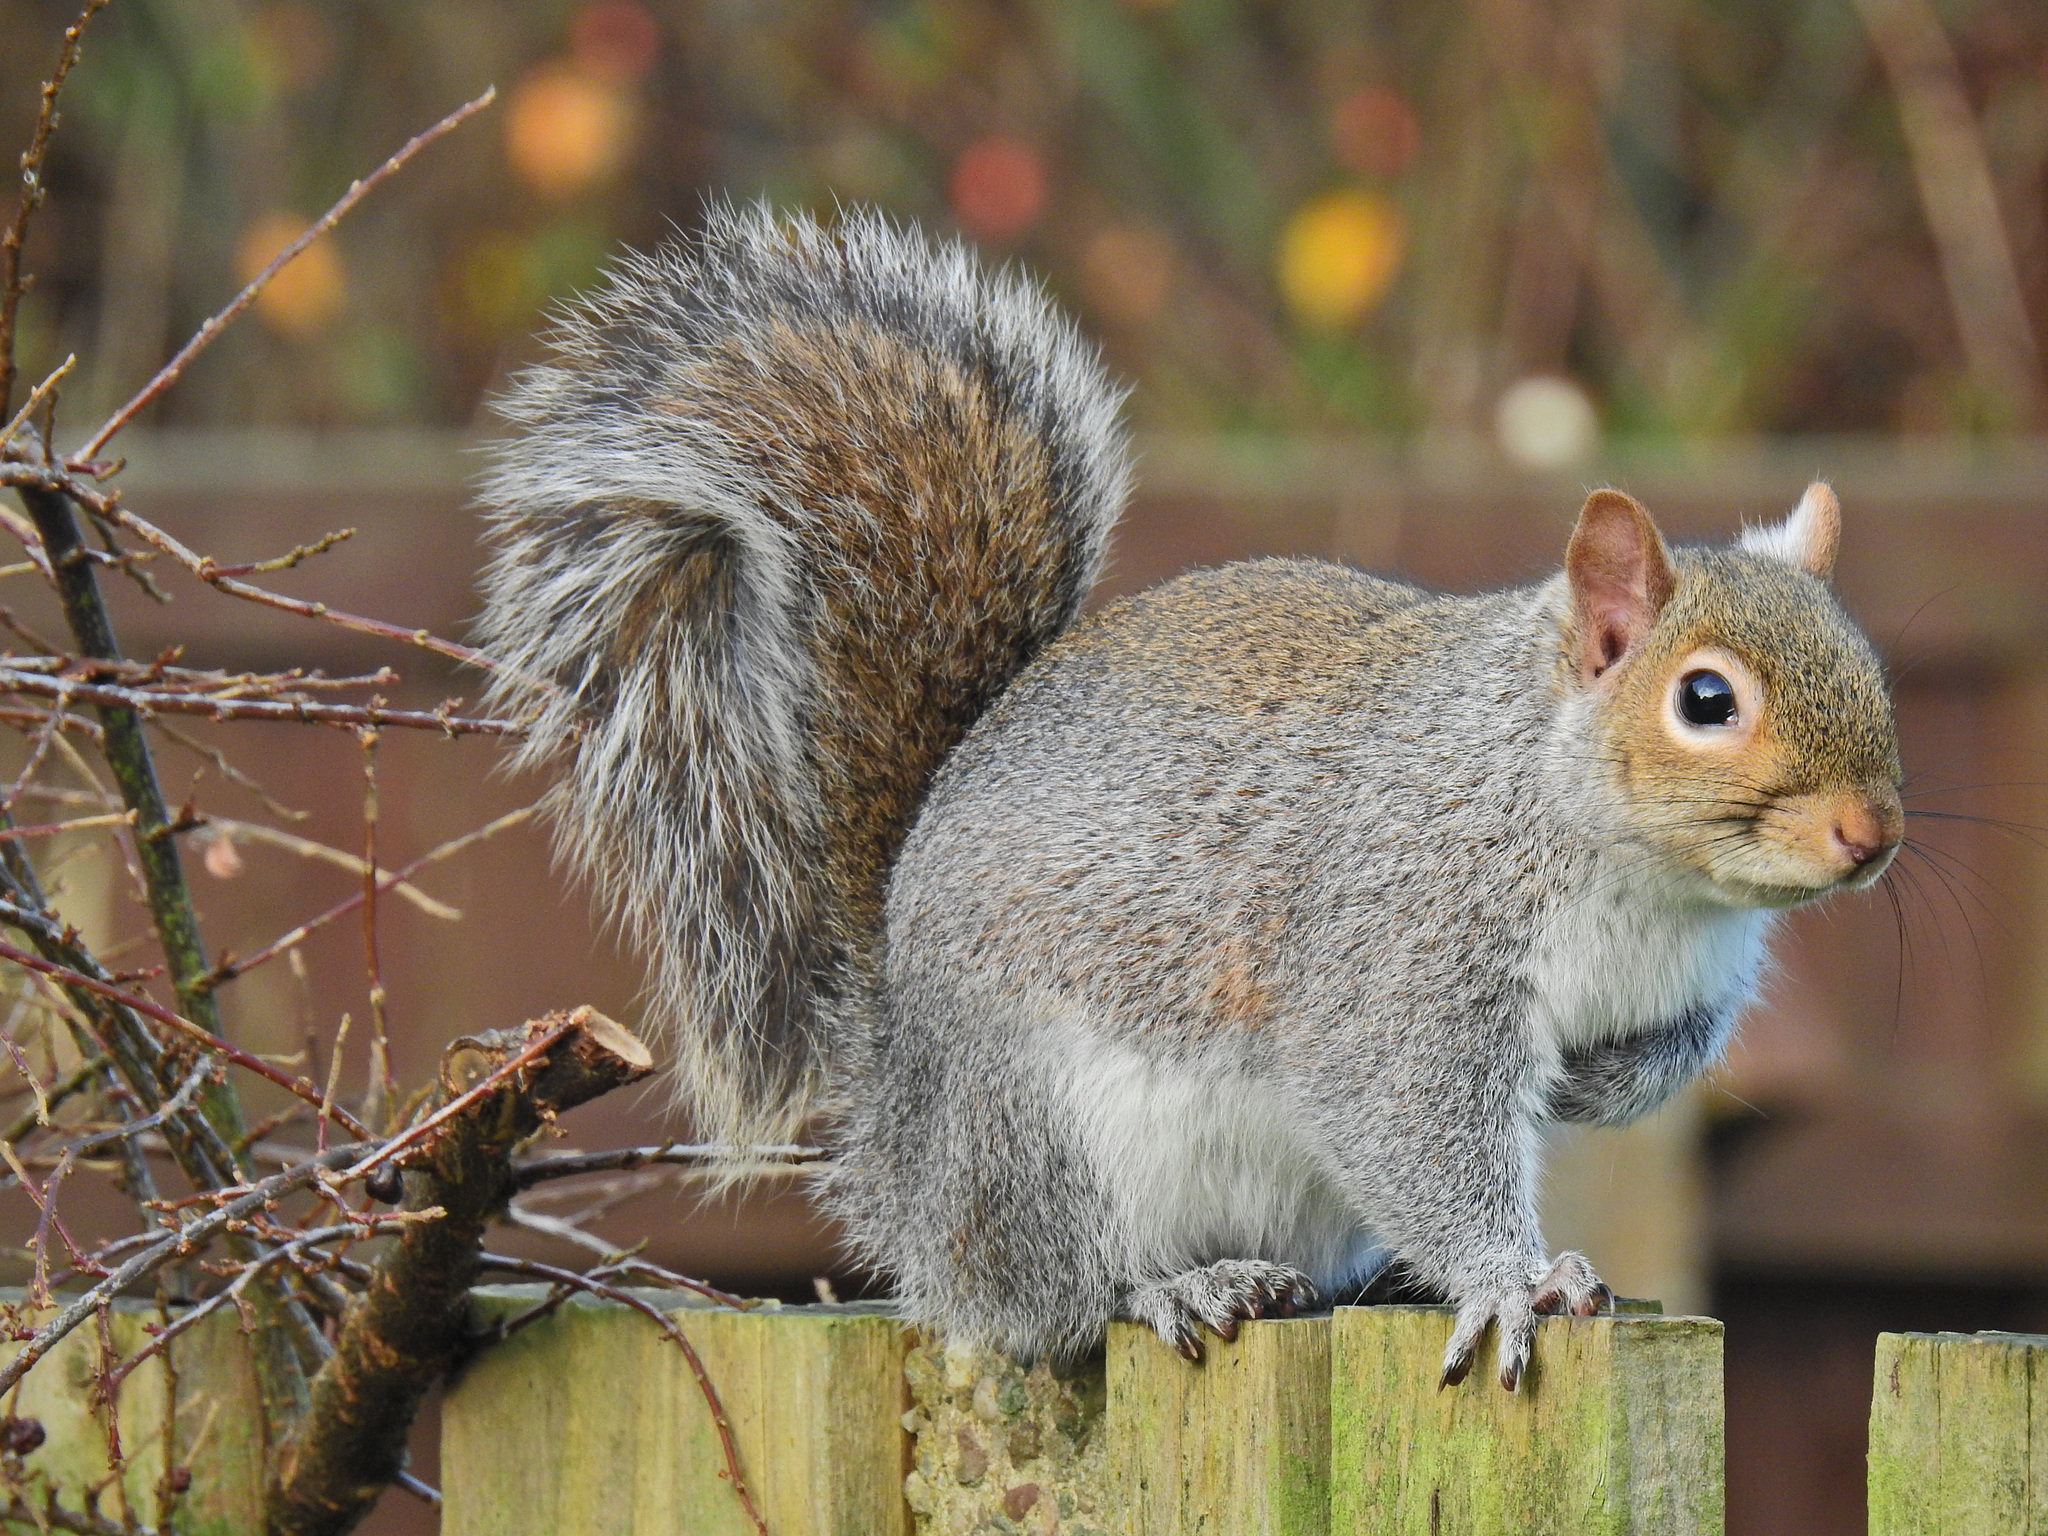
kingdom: Animalia
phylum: Chordata
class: Mammalia
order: Rodentia
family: Sciuridae
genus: Sciurus
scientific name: Sciurus carolinensis
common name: Eastern gray squirrel
